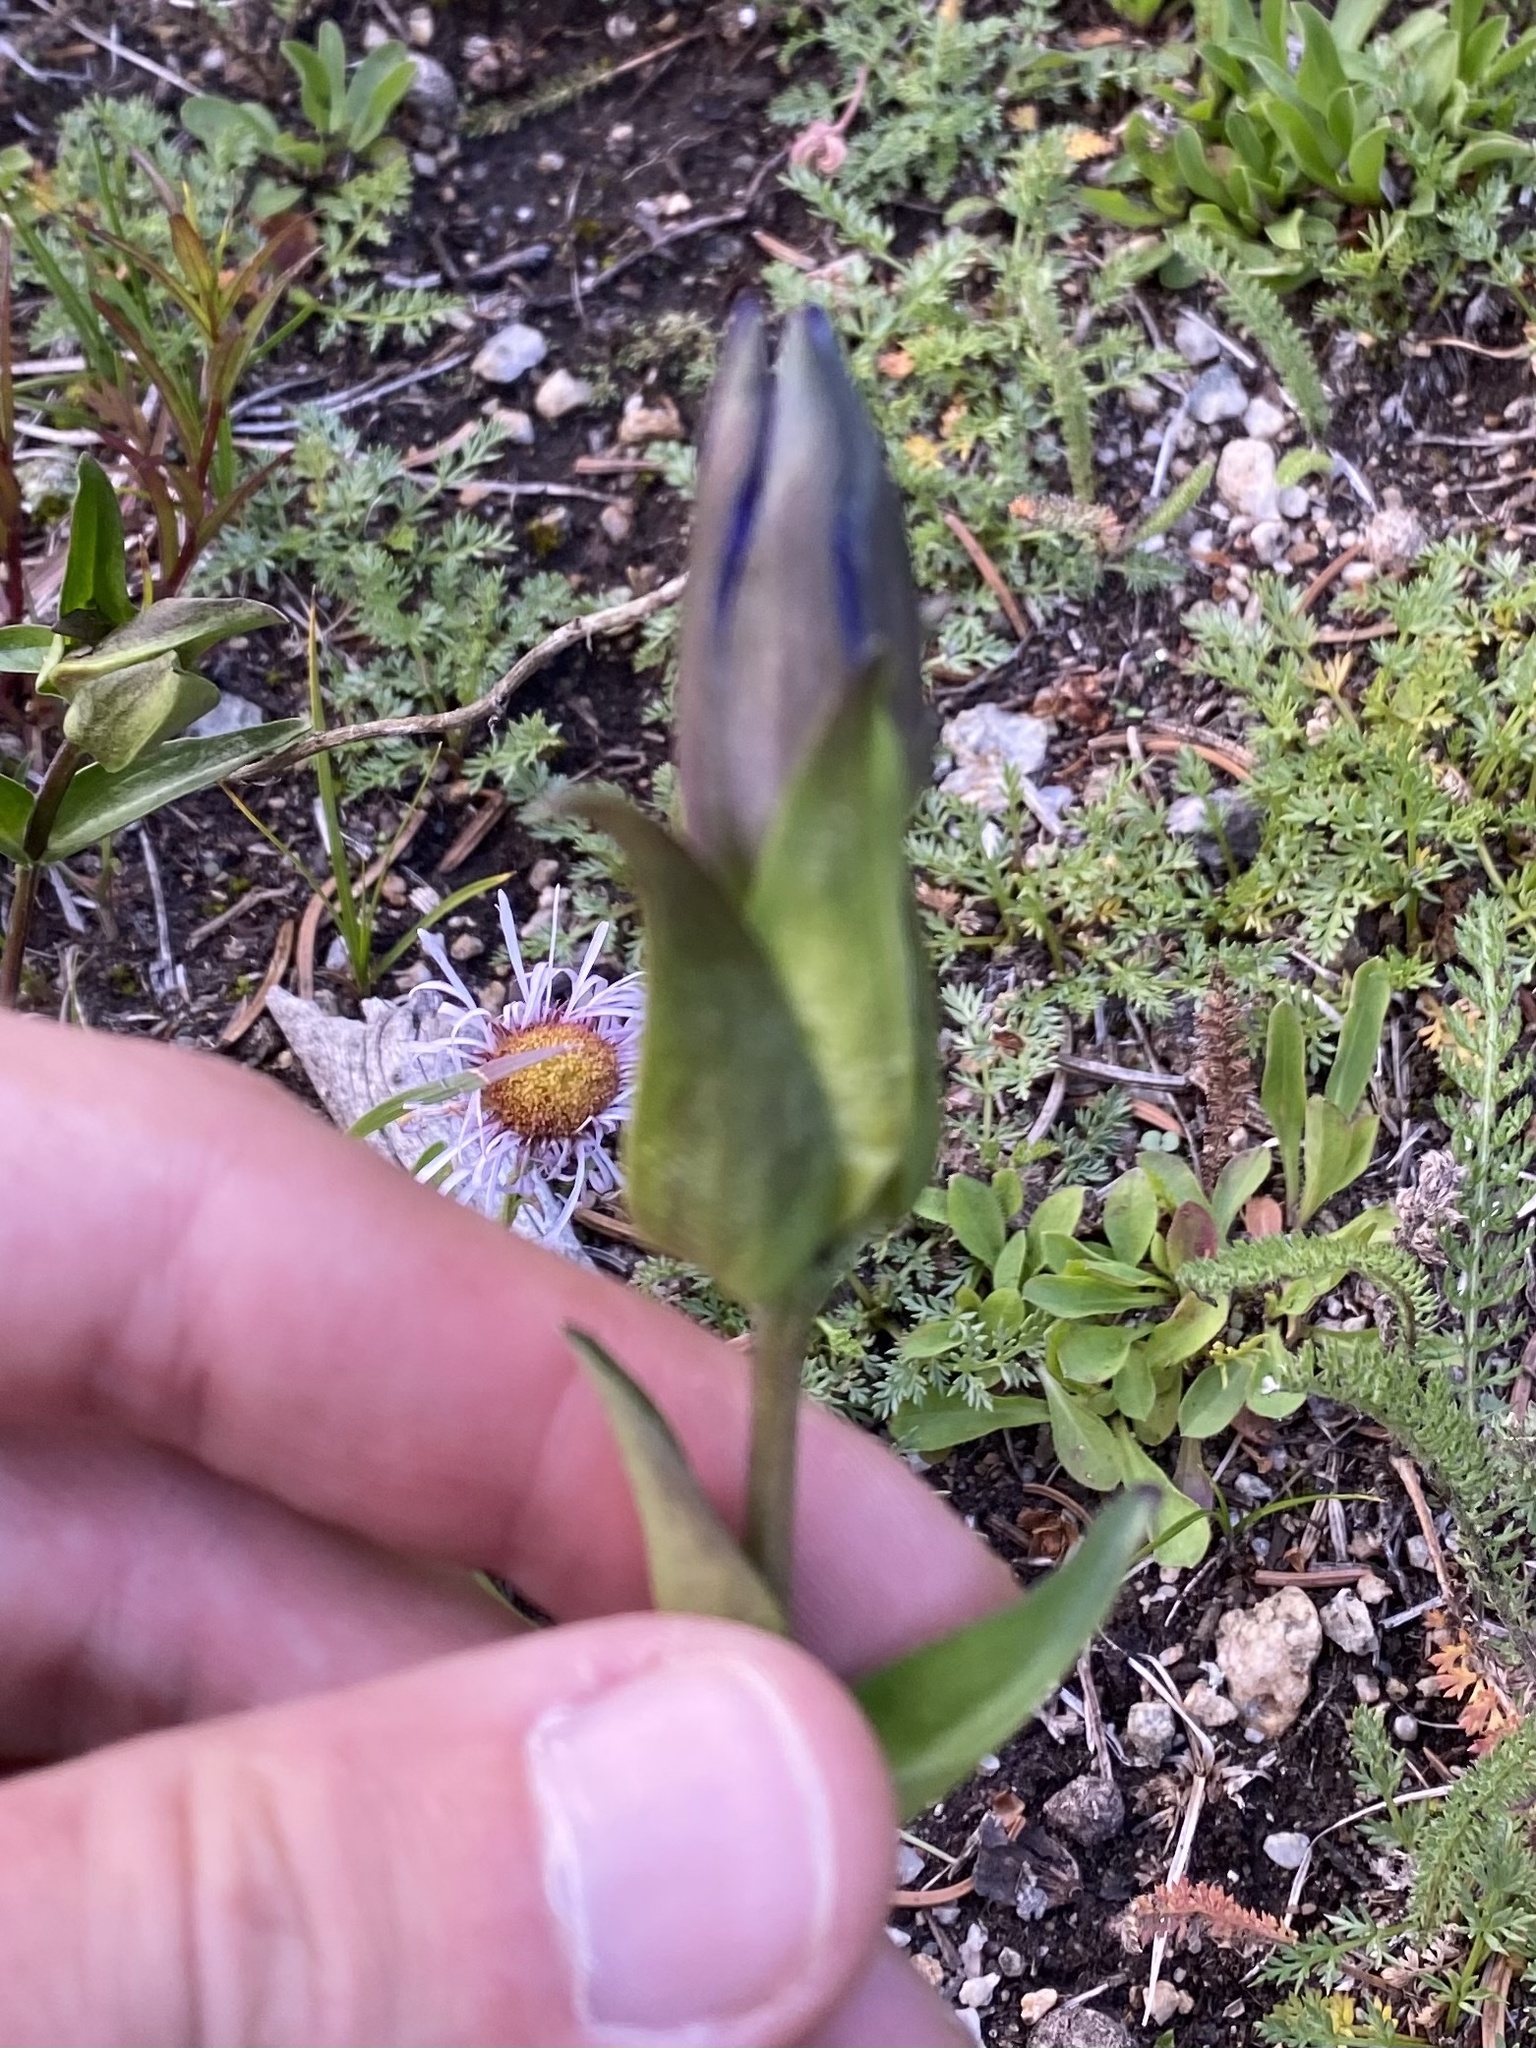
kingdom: Plantae
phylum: Tracheophyta
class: Magnoliopsida
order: Gentianales
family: Gentianaceae
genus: Gentiana
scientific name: Gentiana parryi
